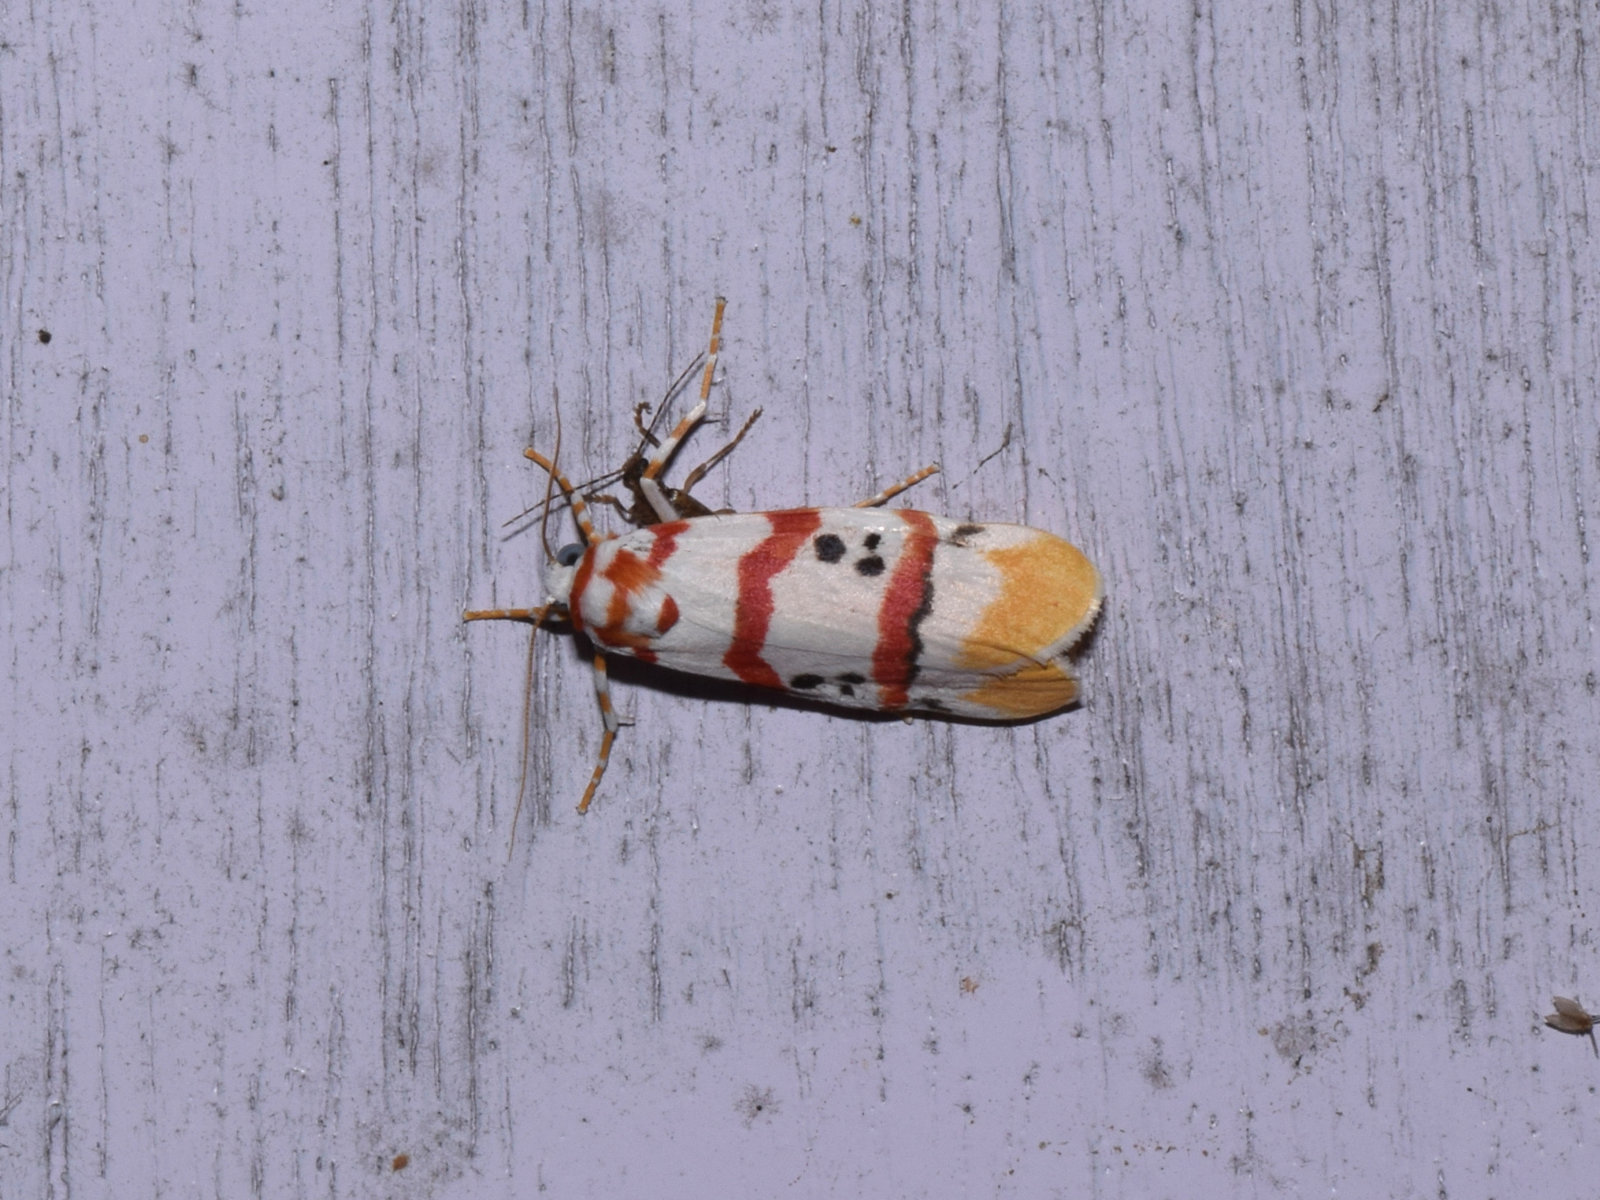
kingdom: Animalia
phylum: Arthropoda
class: Insecta
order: Lepidoptera
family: Erebidae
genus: Cyana
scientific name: Cyana neopuer
